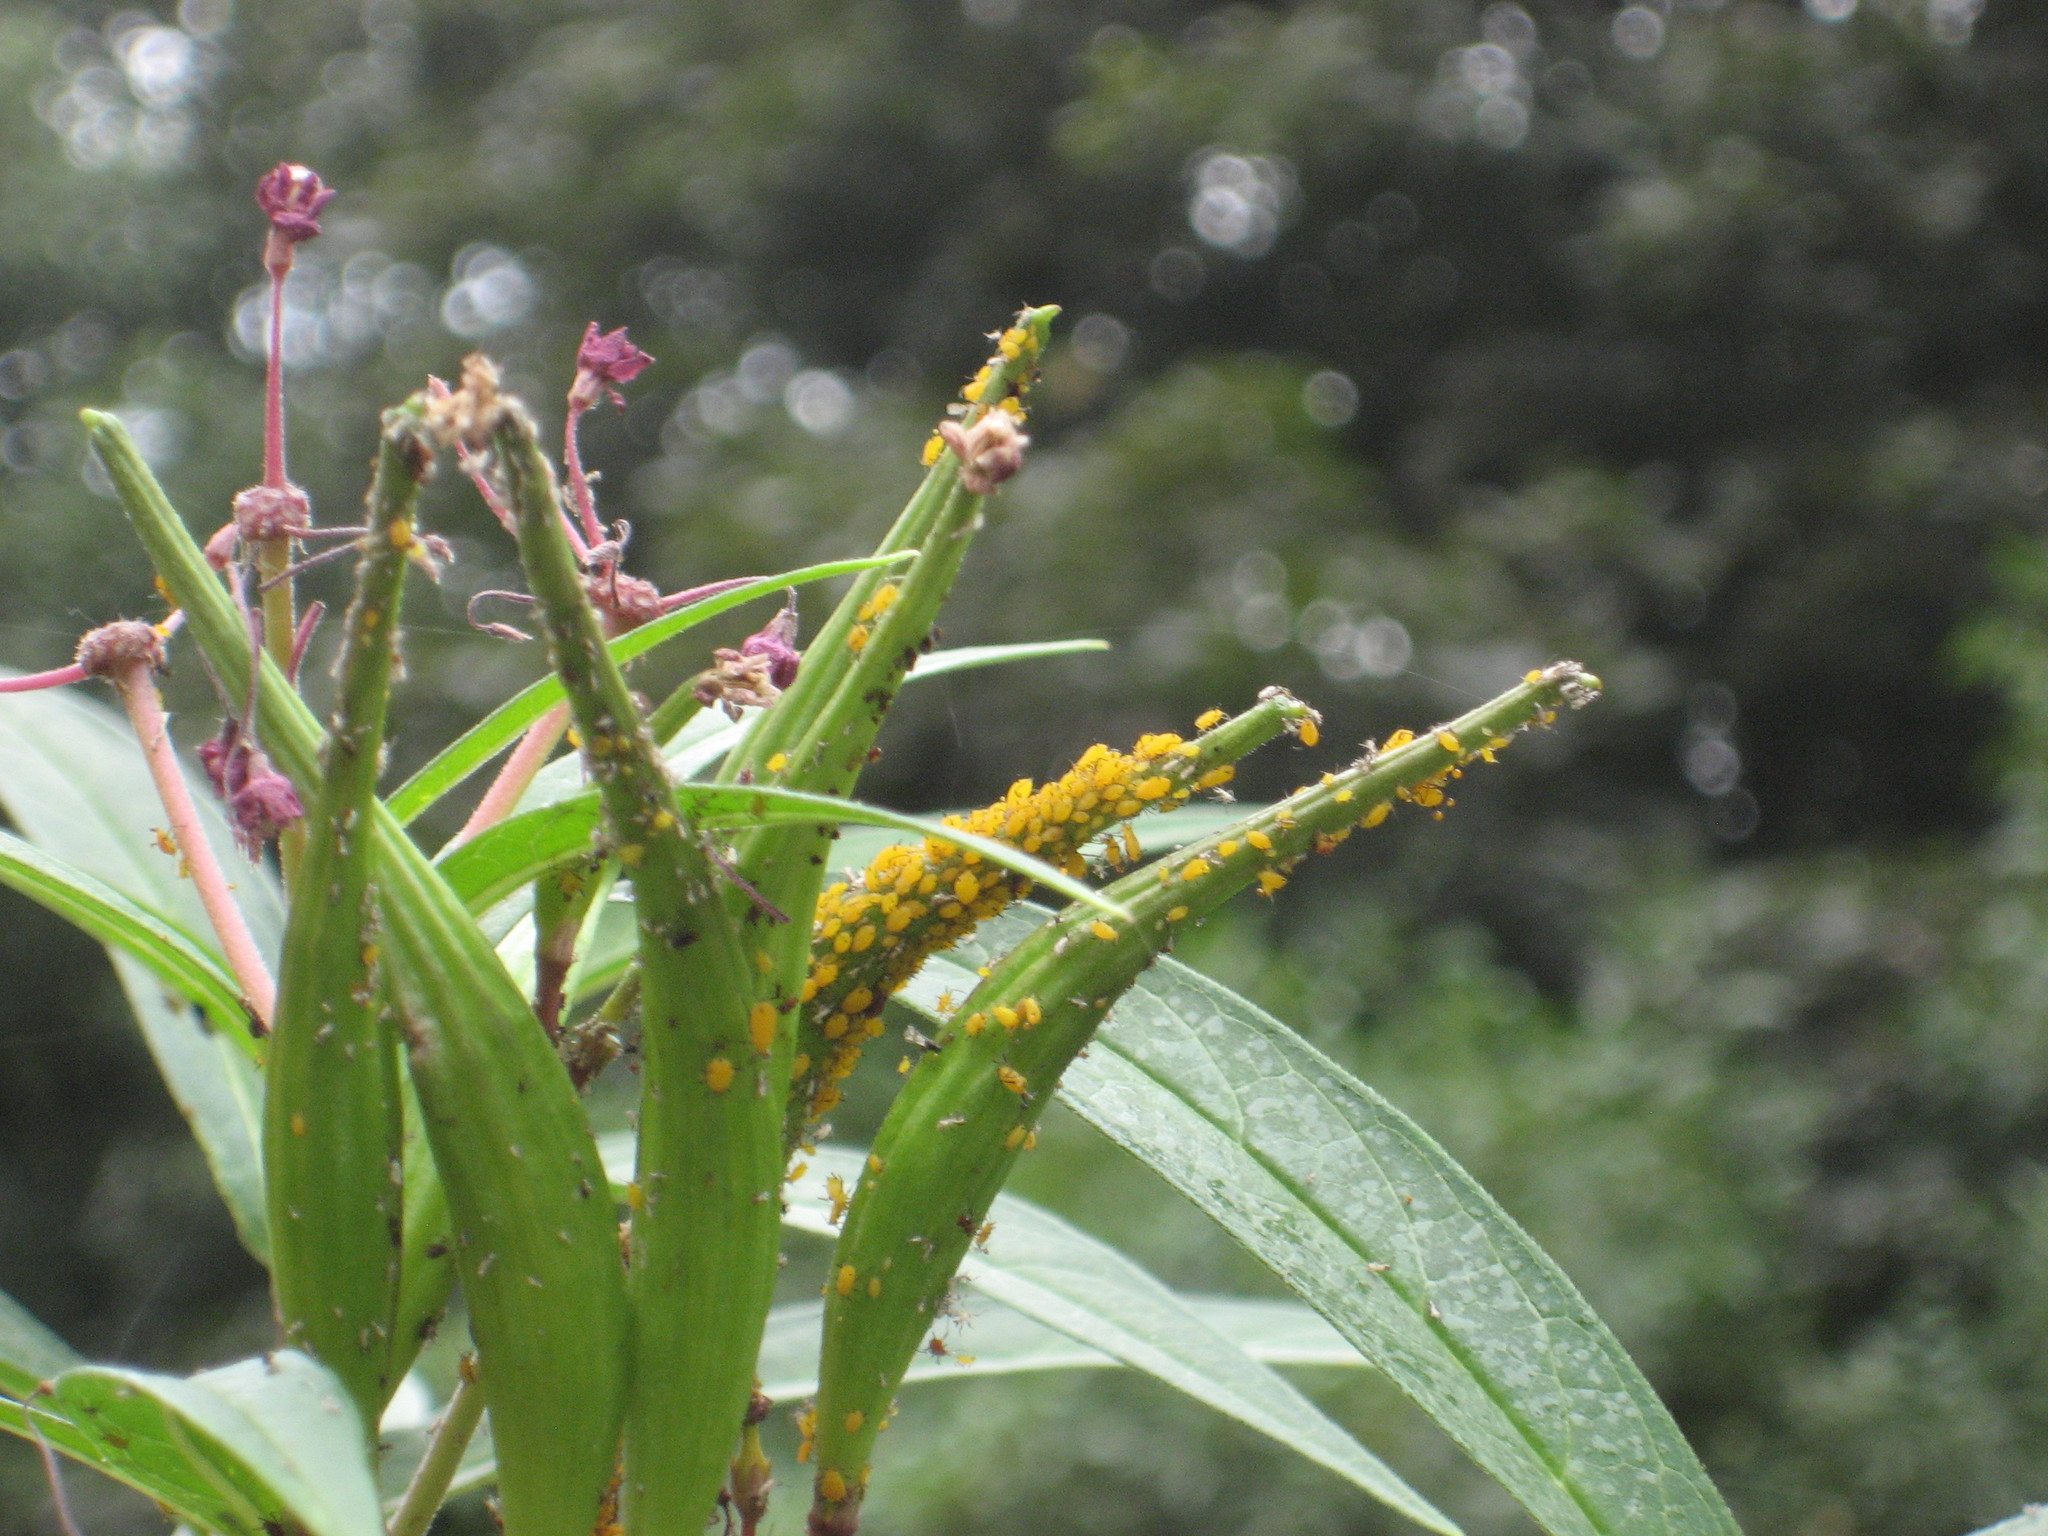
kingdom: Animalia
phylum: Arthropoda
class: Insecta
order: Hemiptera
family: Aphididae
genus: Aphis
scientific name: Aphis nerii
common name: Oleander aphid
